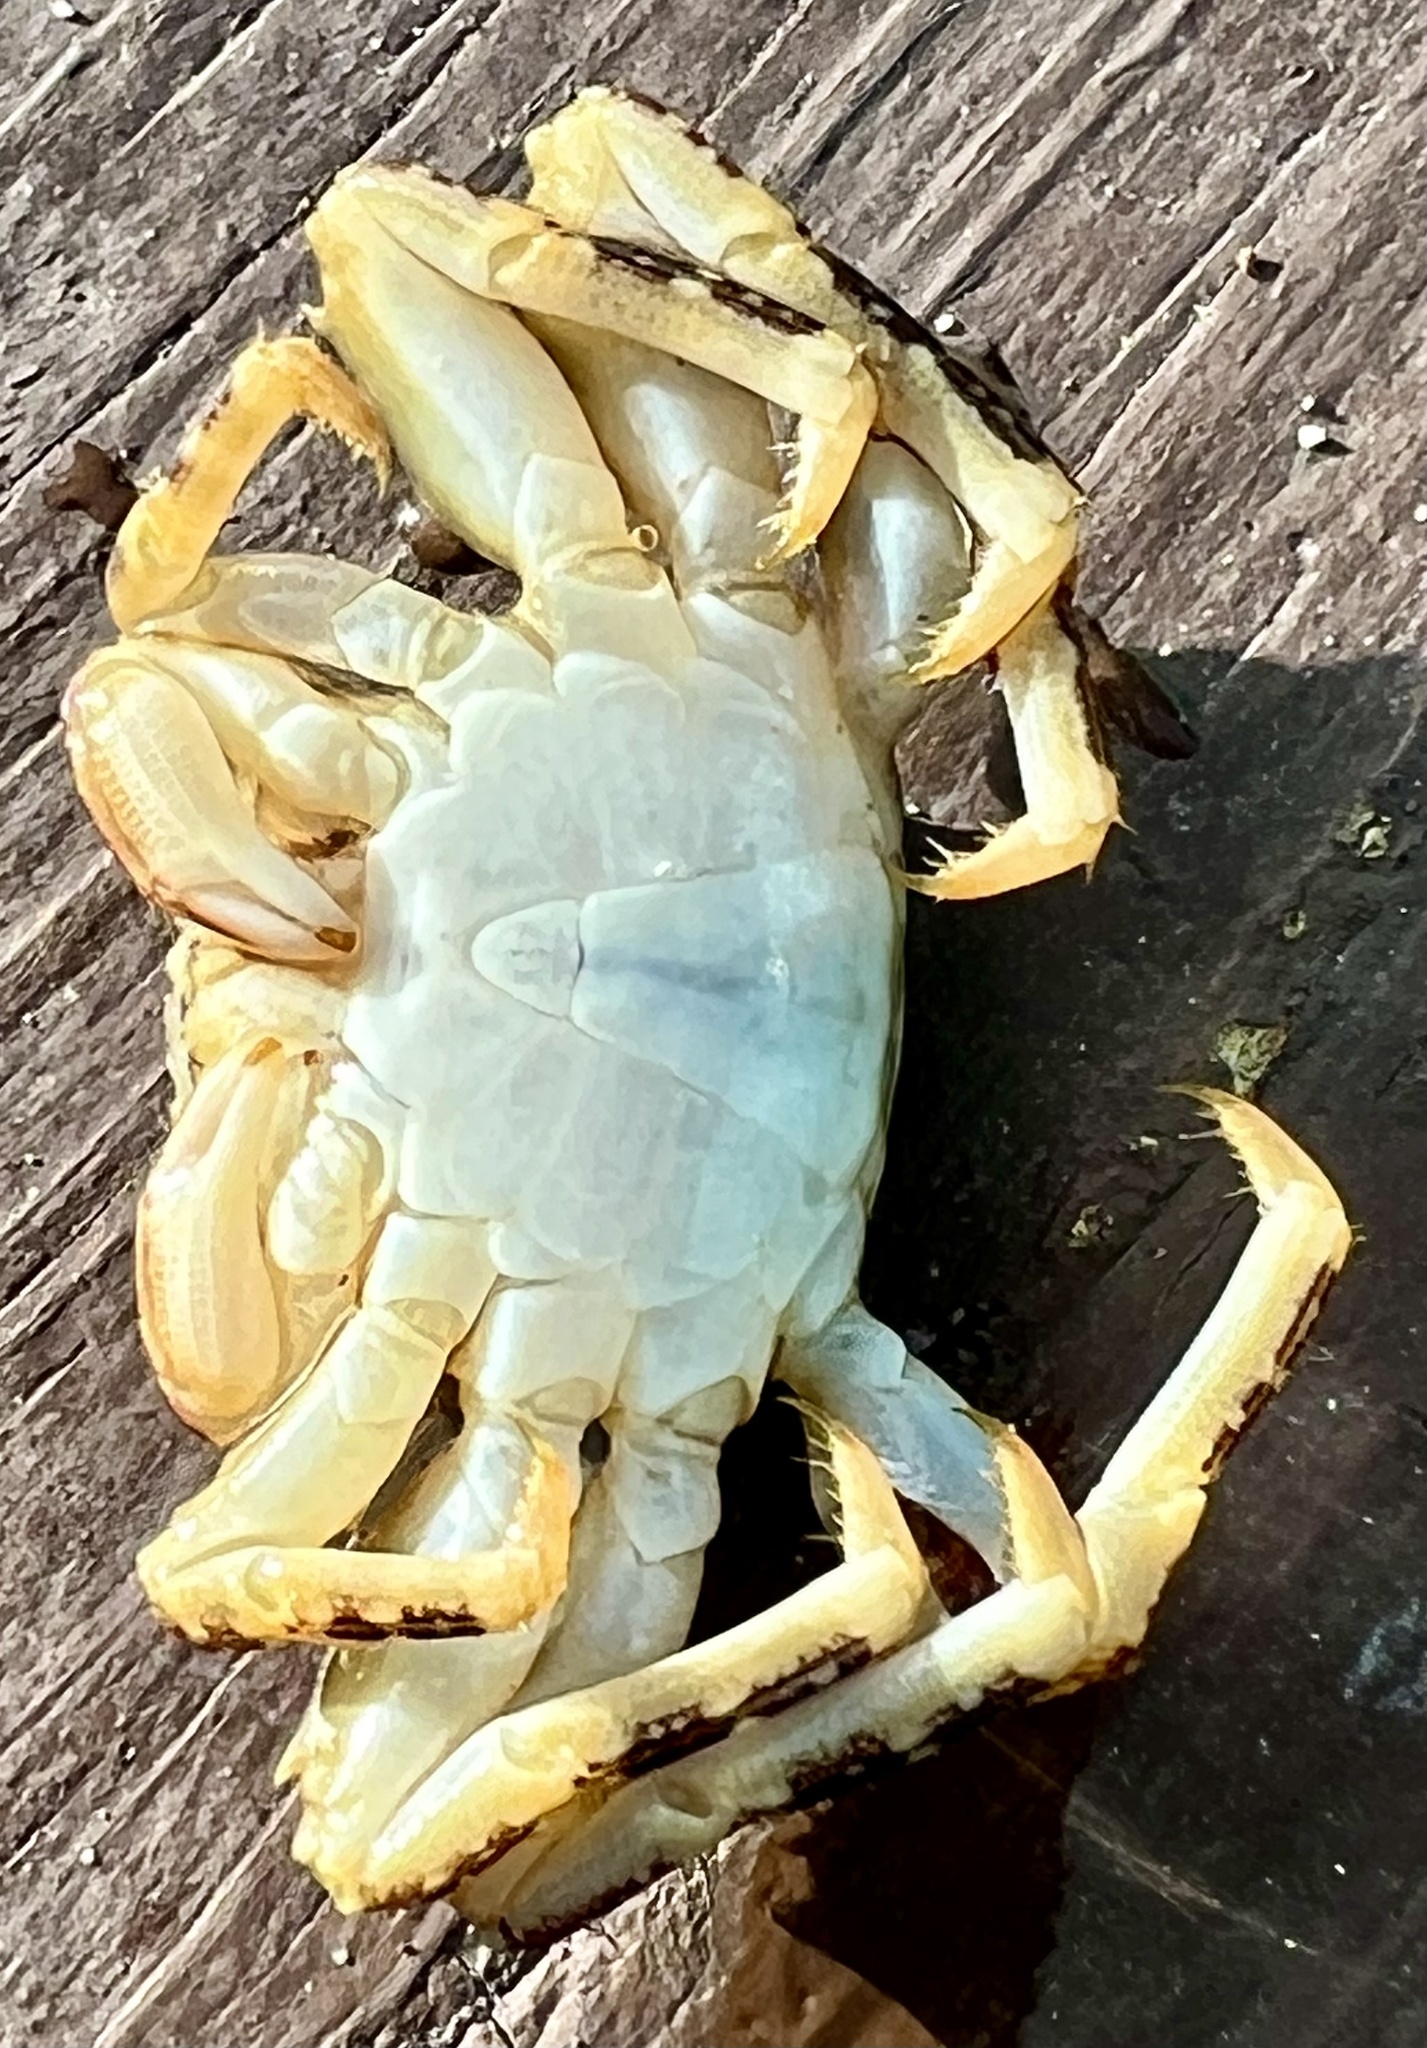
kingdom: Animalia
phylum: Arthropoda
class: Malacostraca
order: Decapoda
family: Plagusiidae
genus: Plagusia
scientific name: Plagusia depressa
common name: Flattened crab
